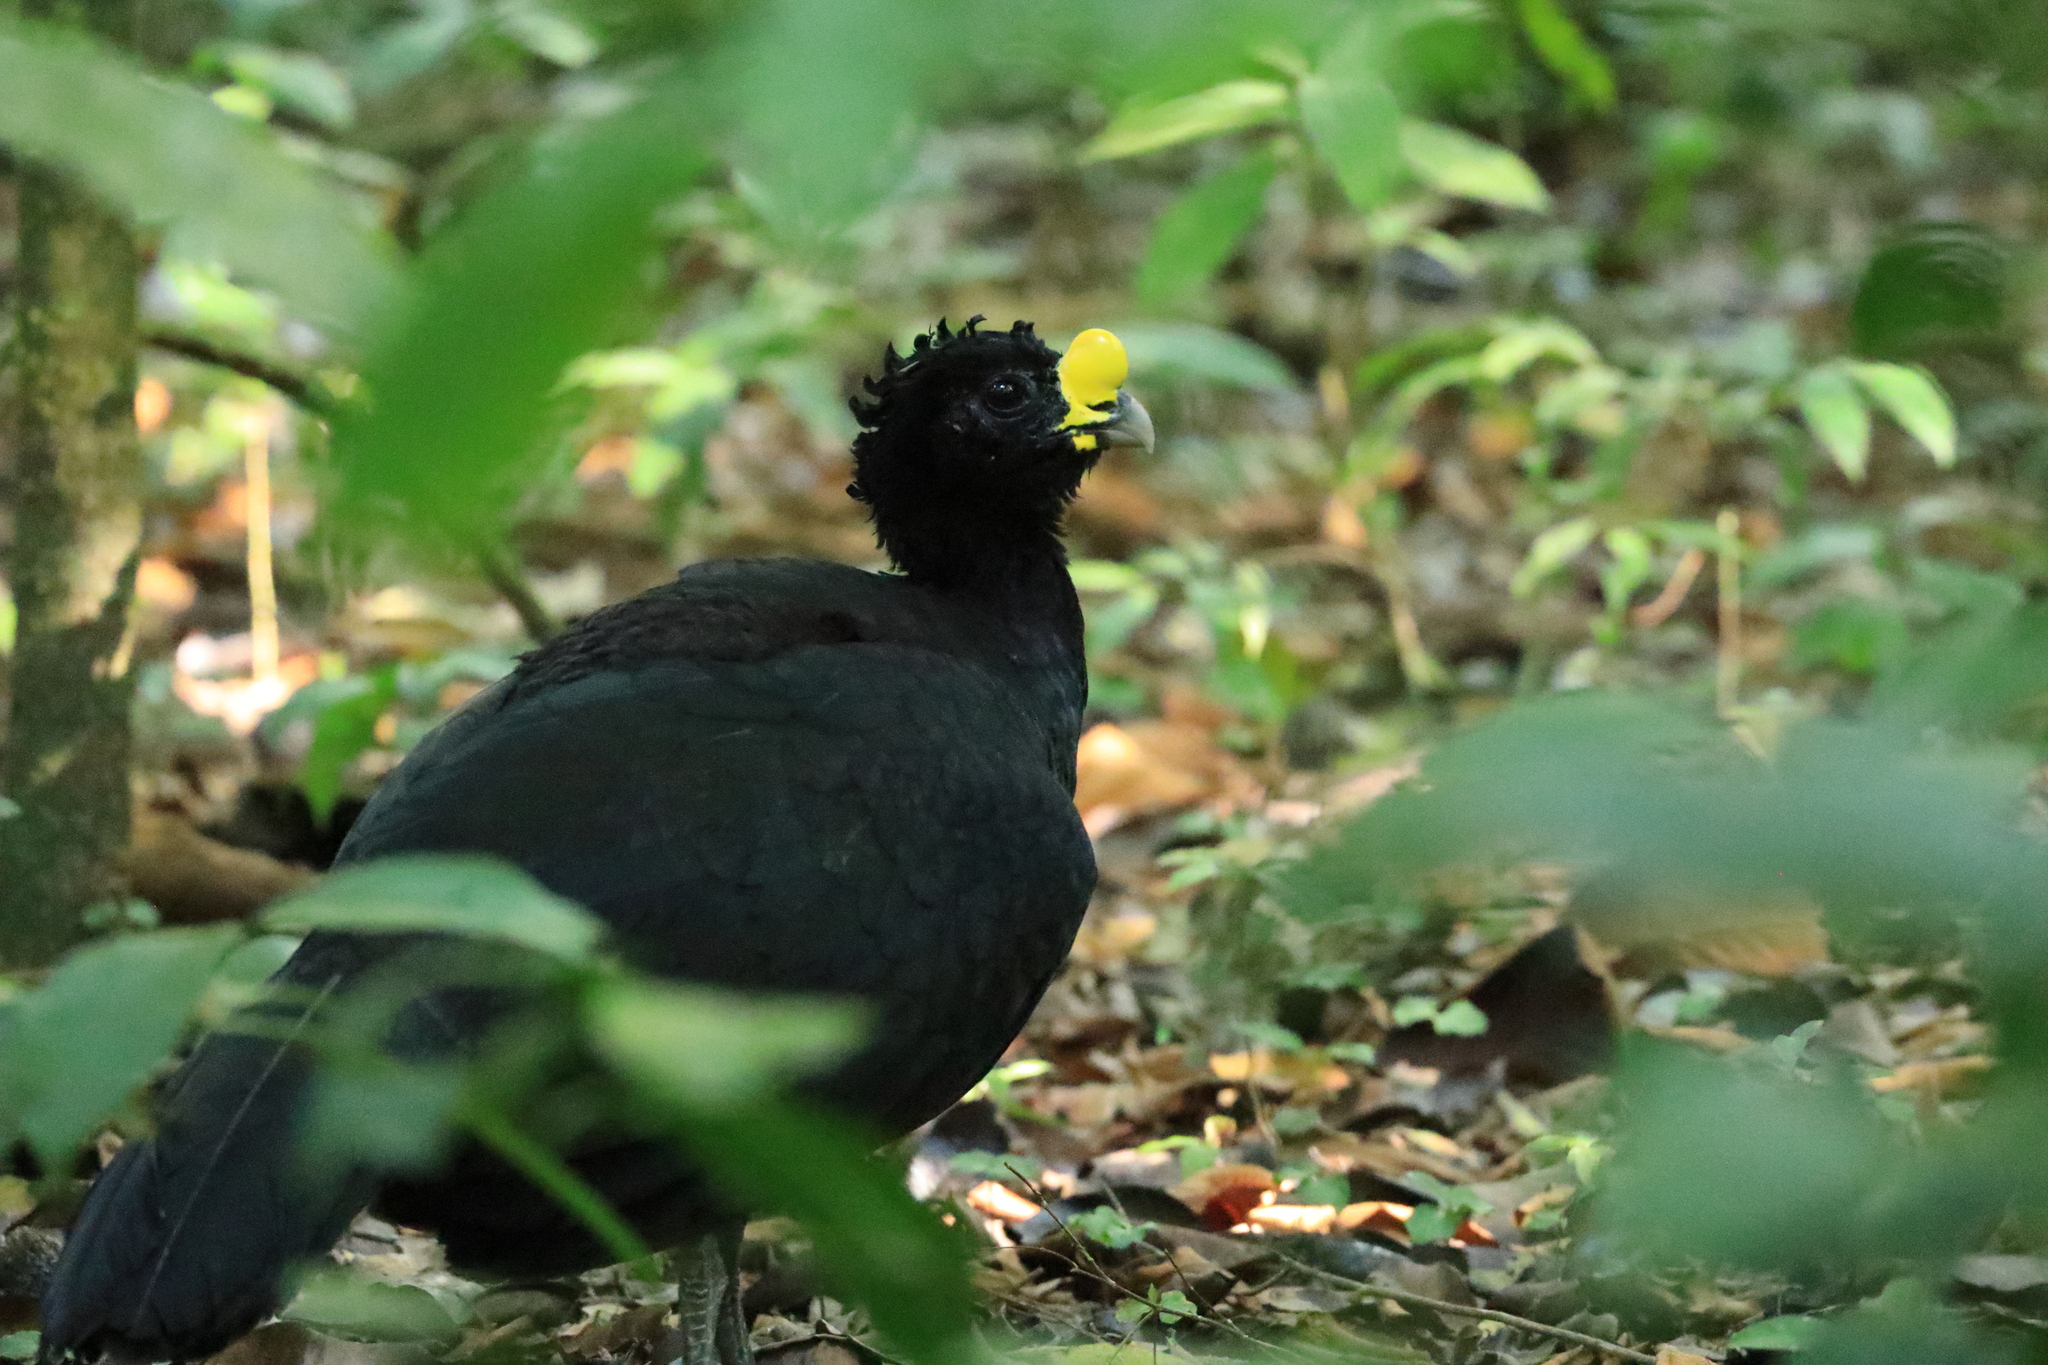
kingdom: Animalia
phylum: Chordata
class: Aves
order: Galliformes
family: Cracidae
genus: Crax
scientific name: Crax rubra
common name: Great curassow
